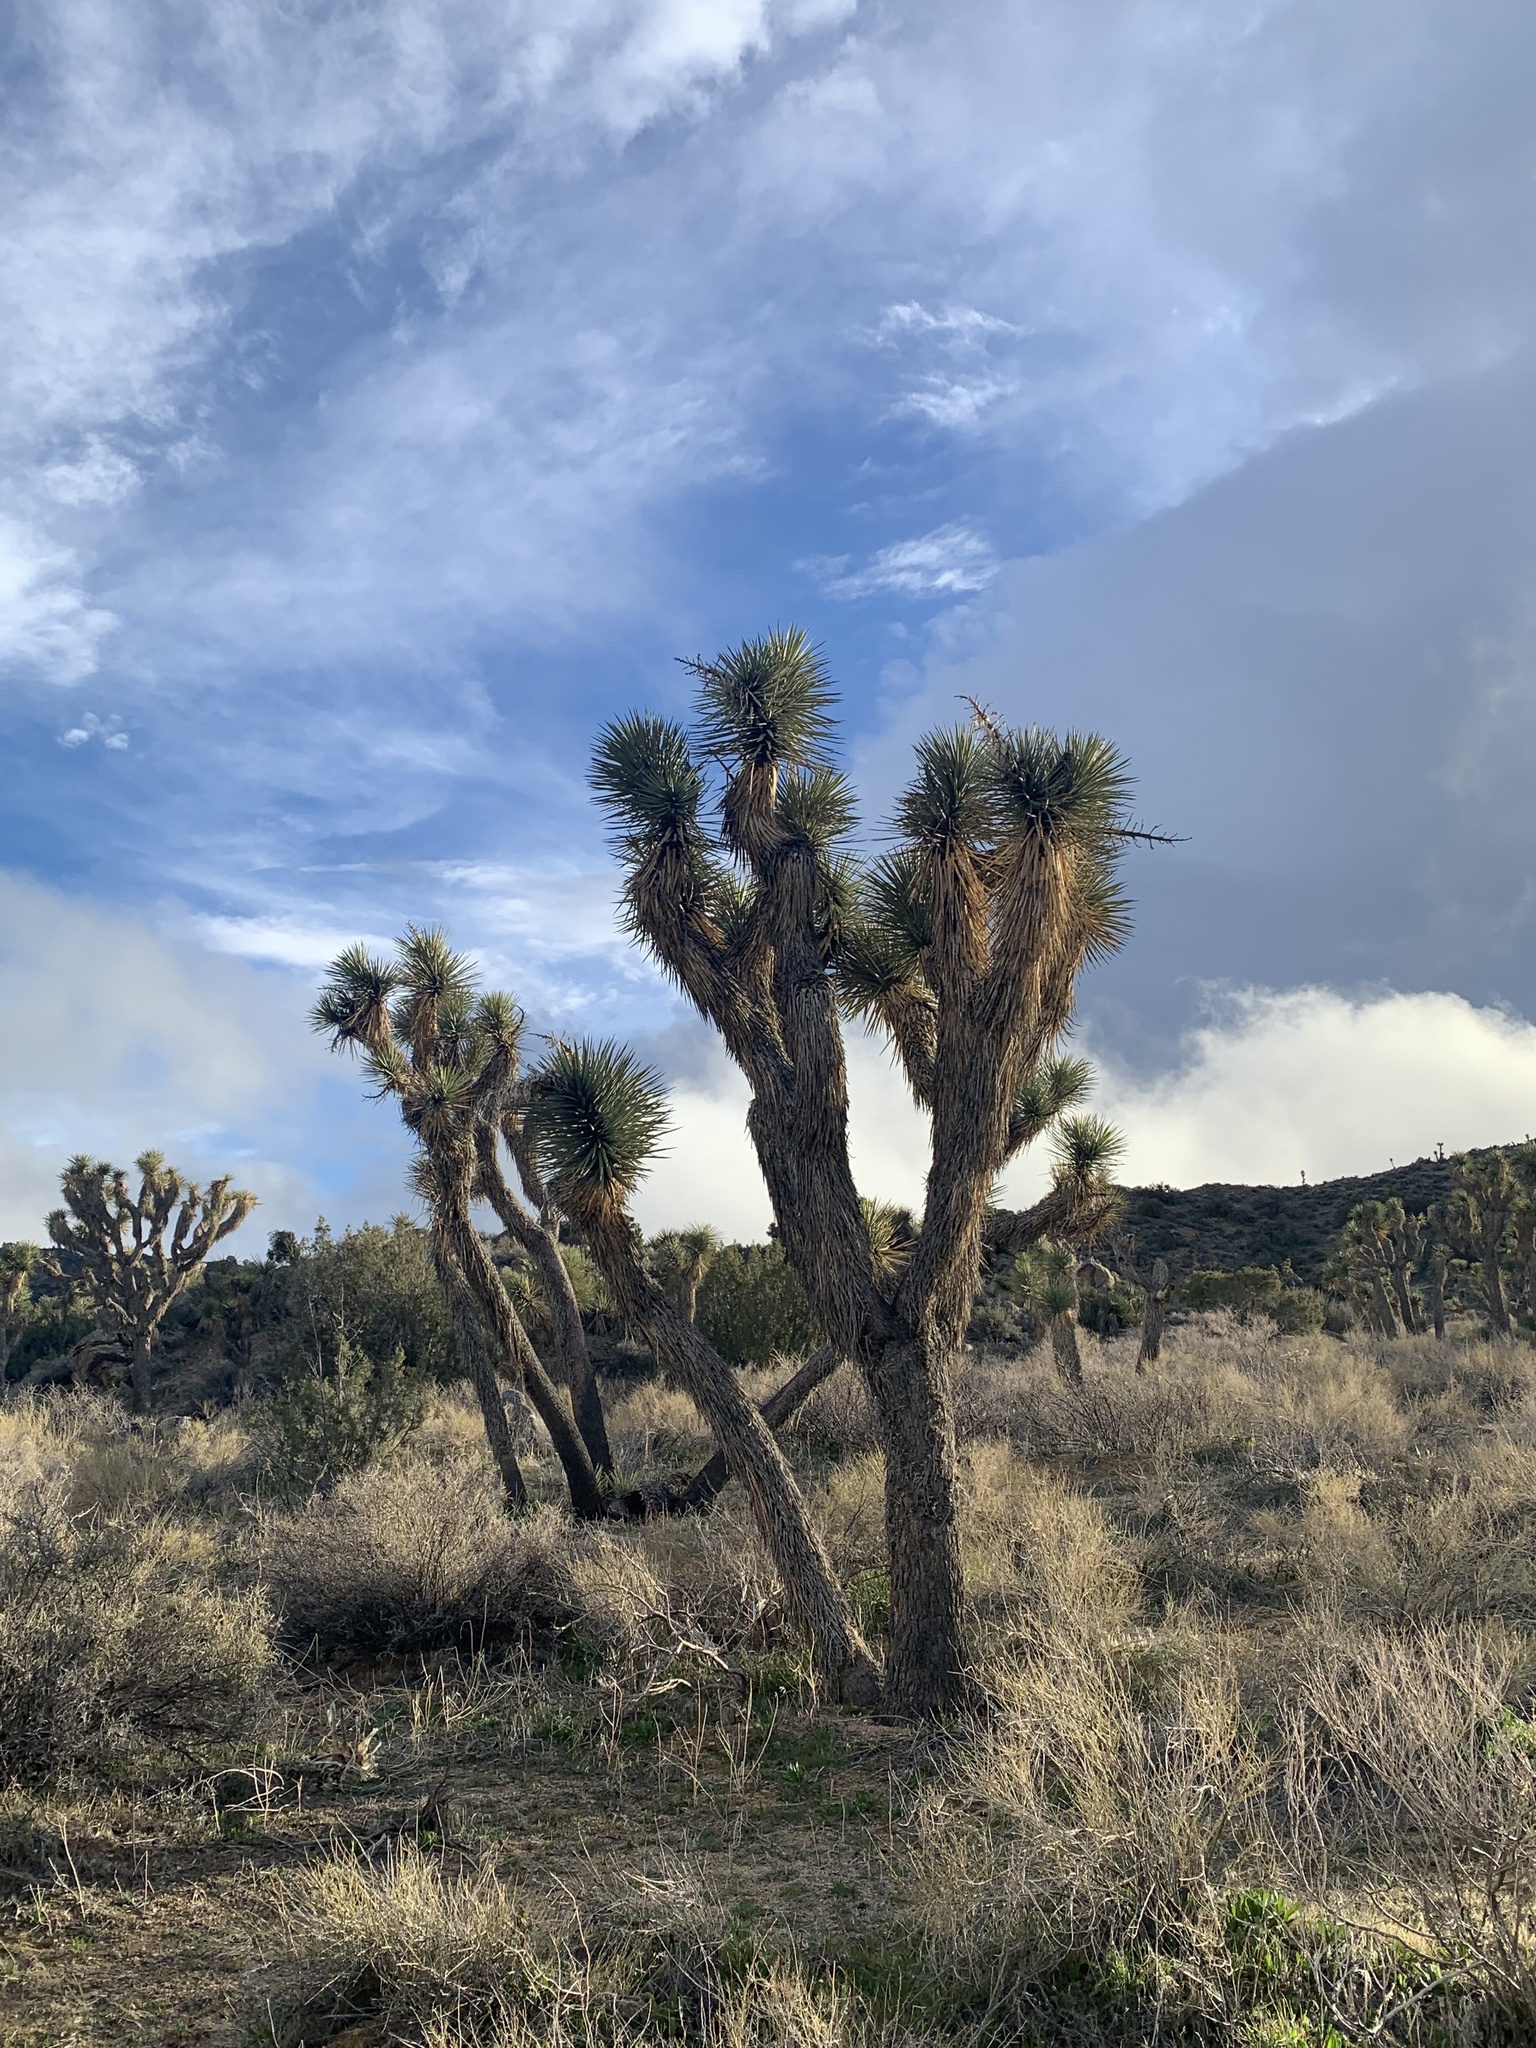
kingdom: Plantae
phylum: Tracheophyta
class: Liliopsida
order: Asparagales
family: Asparagaceae
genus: Yucca
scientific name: Yucca brevifolia
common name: Joshua tree
